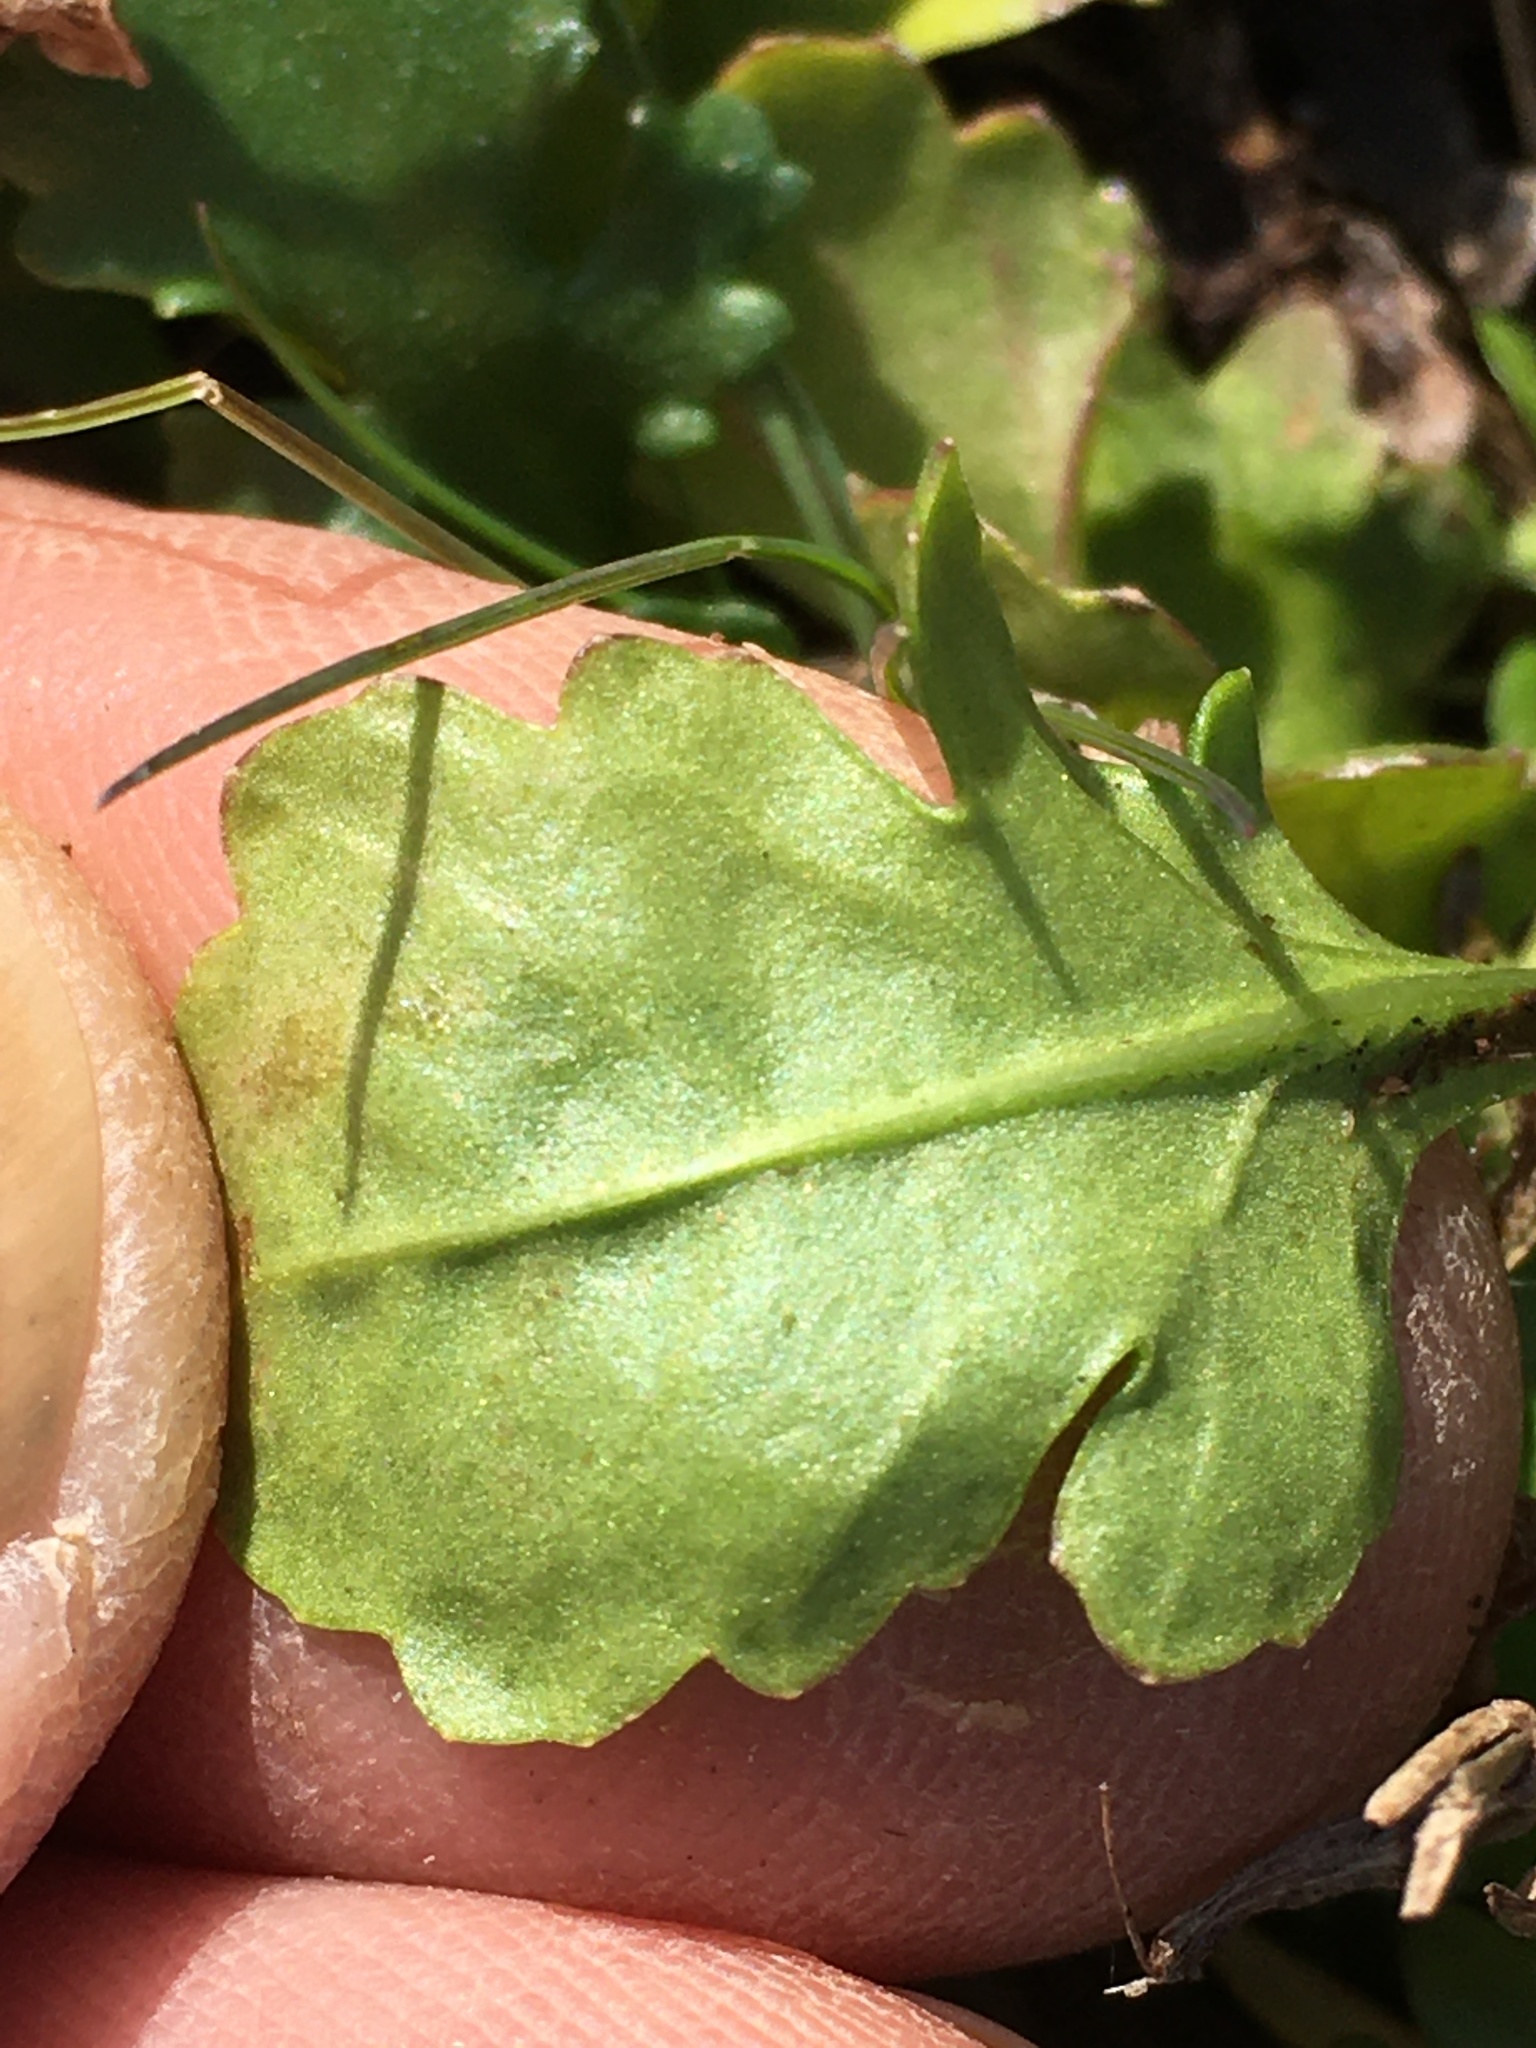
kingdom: Plantae
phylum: Tracheophyta
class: Magnoliopsida
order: Asterales
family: Asteraceae
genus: Leucanthemum
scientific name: Leucanthemum vulgare
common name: Oxeye daisy
